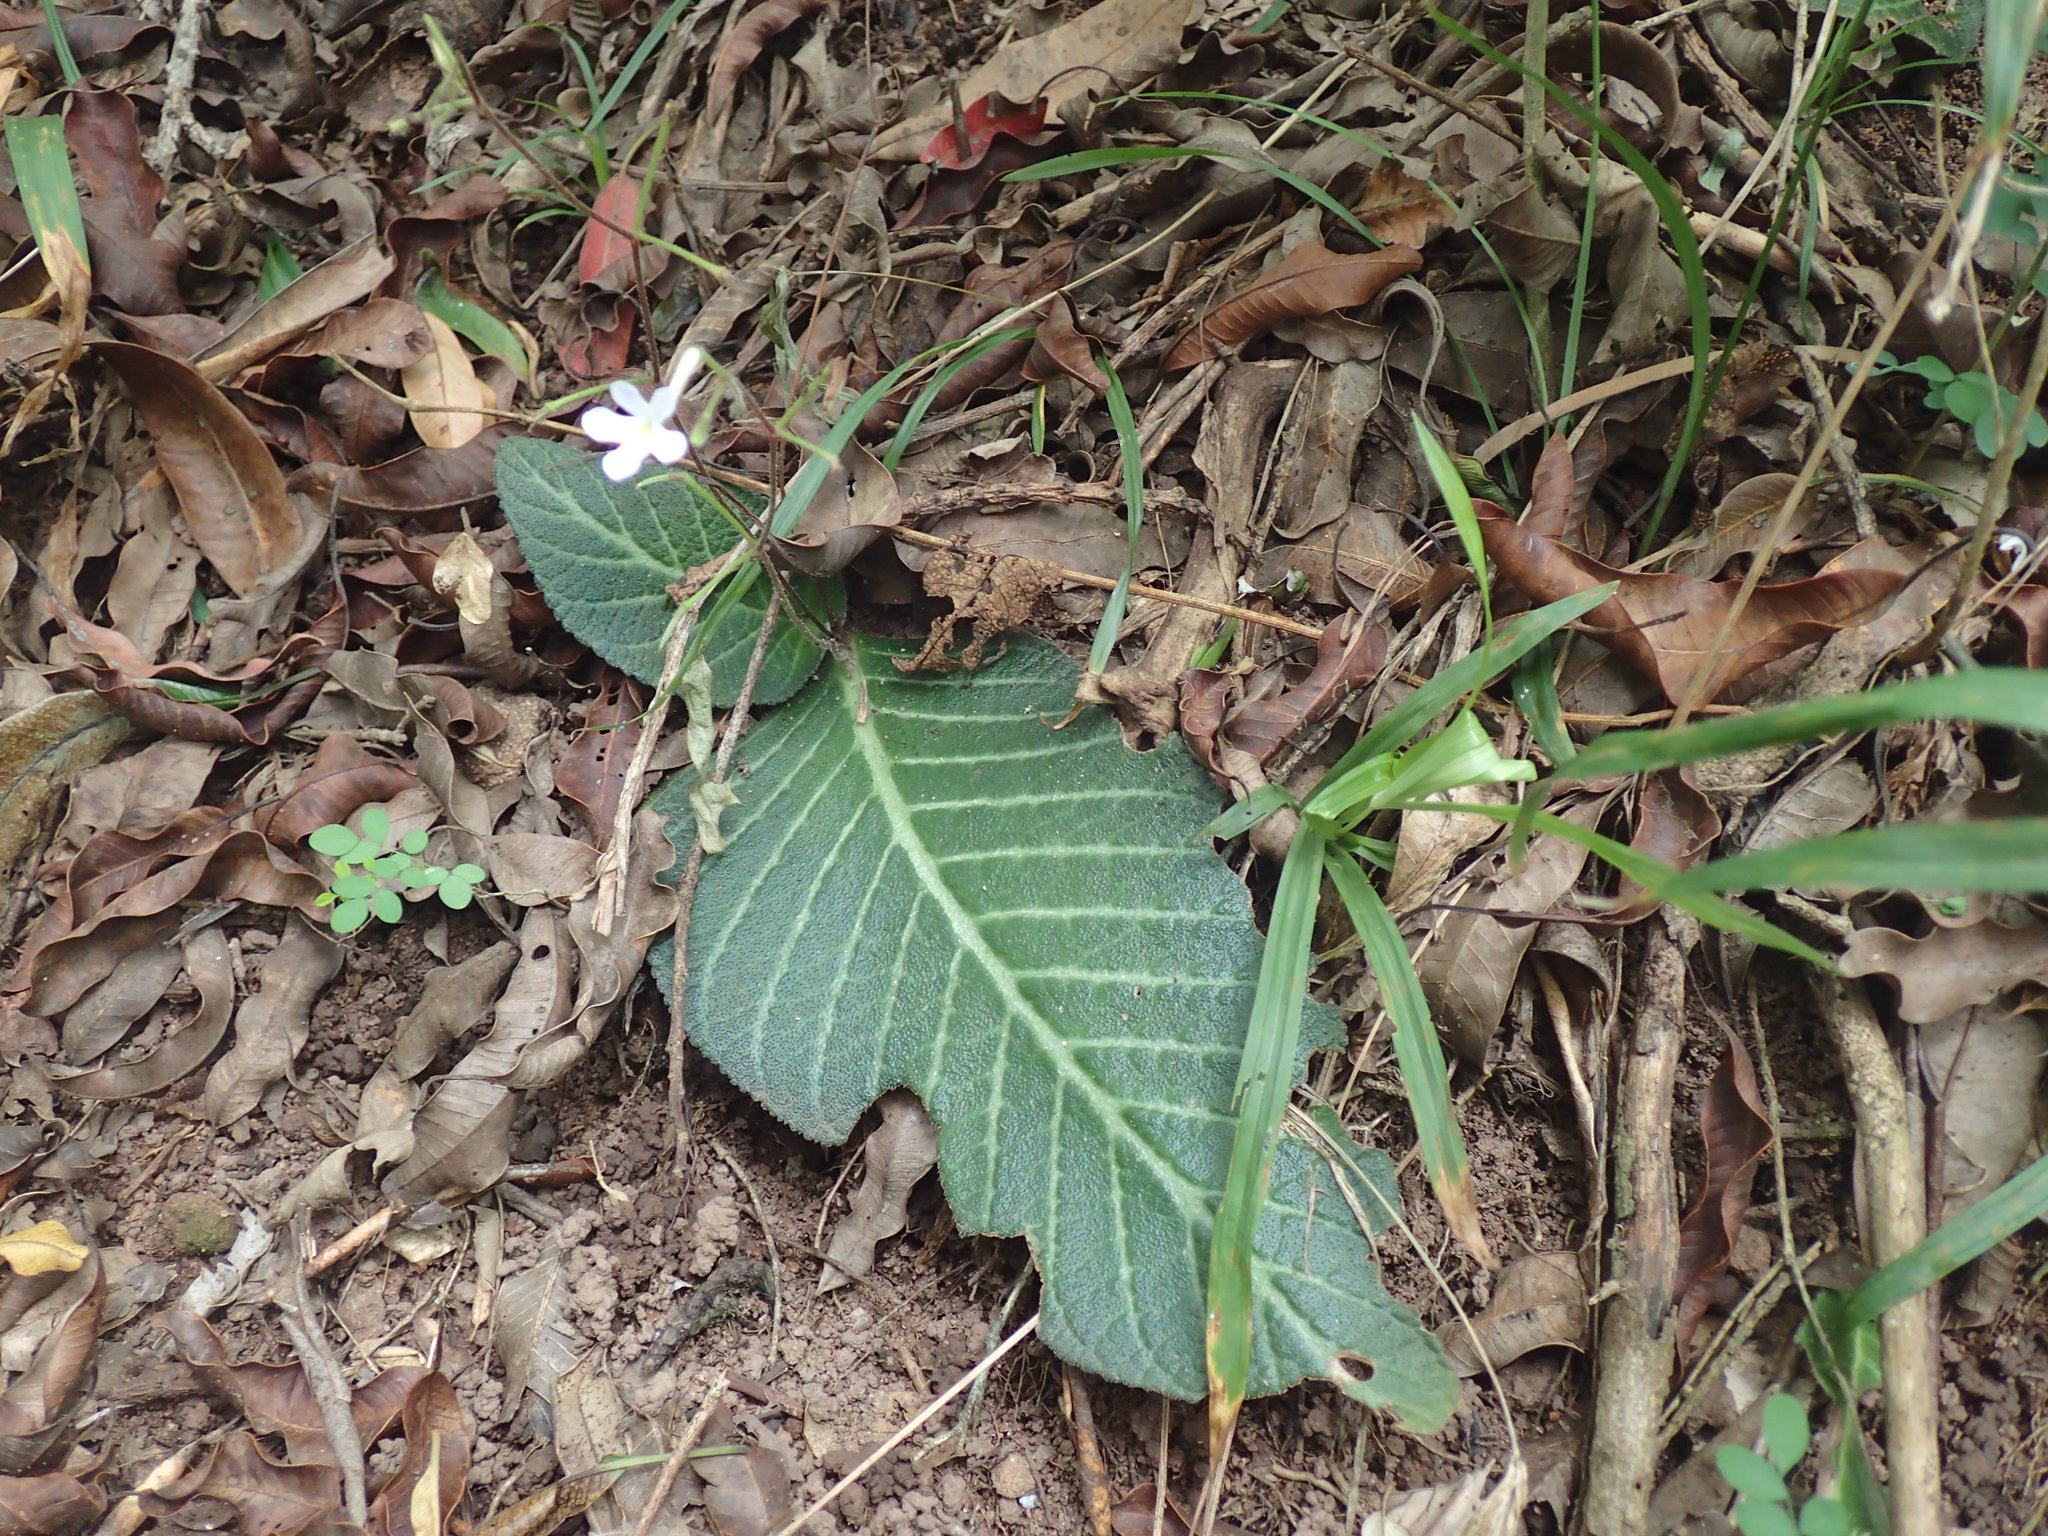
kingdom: Plantae
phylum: Tracheophyta
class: Magnoliopsida
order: Lamiales
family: Gesneriaceae
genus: Streptocarpus
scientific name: Streptocarpus prolixus
